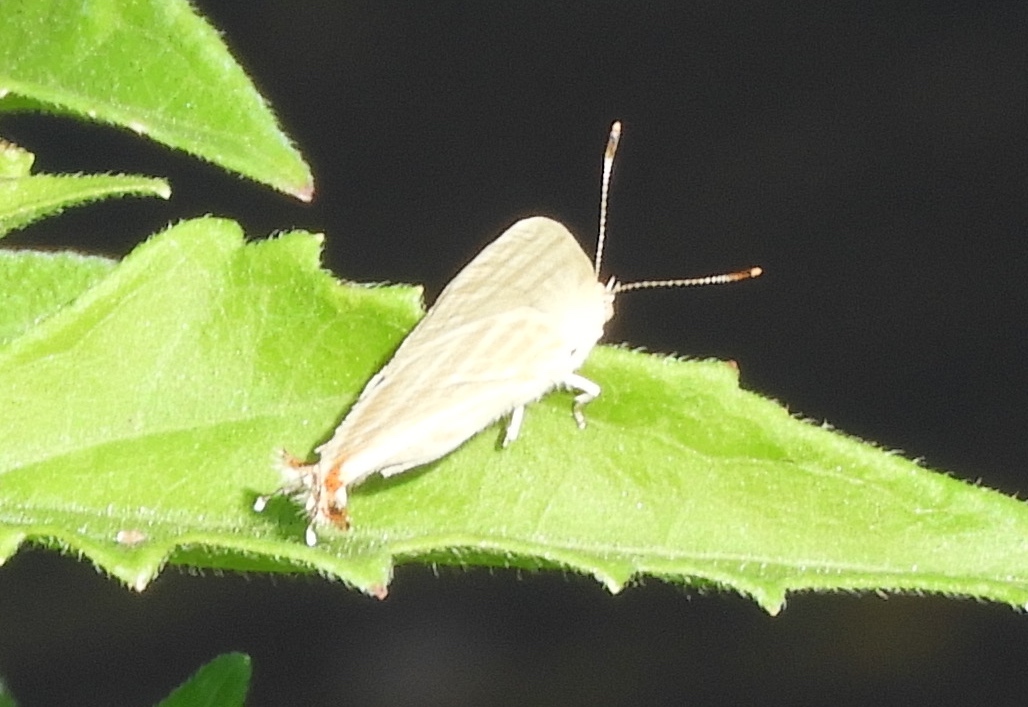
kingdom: Animalia
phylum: Arthropoda
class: Insecta
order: Lepidoptera
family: Lycaenidae
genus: Dolymorpha
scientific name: Dolymorpha jada
